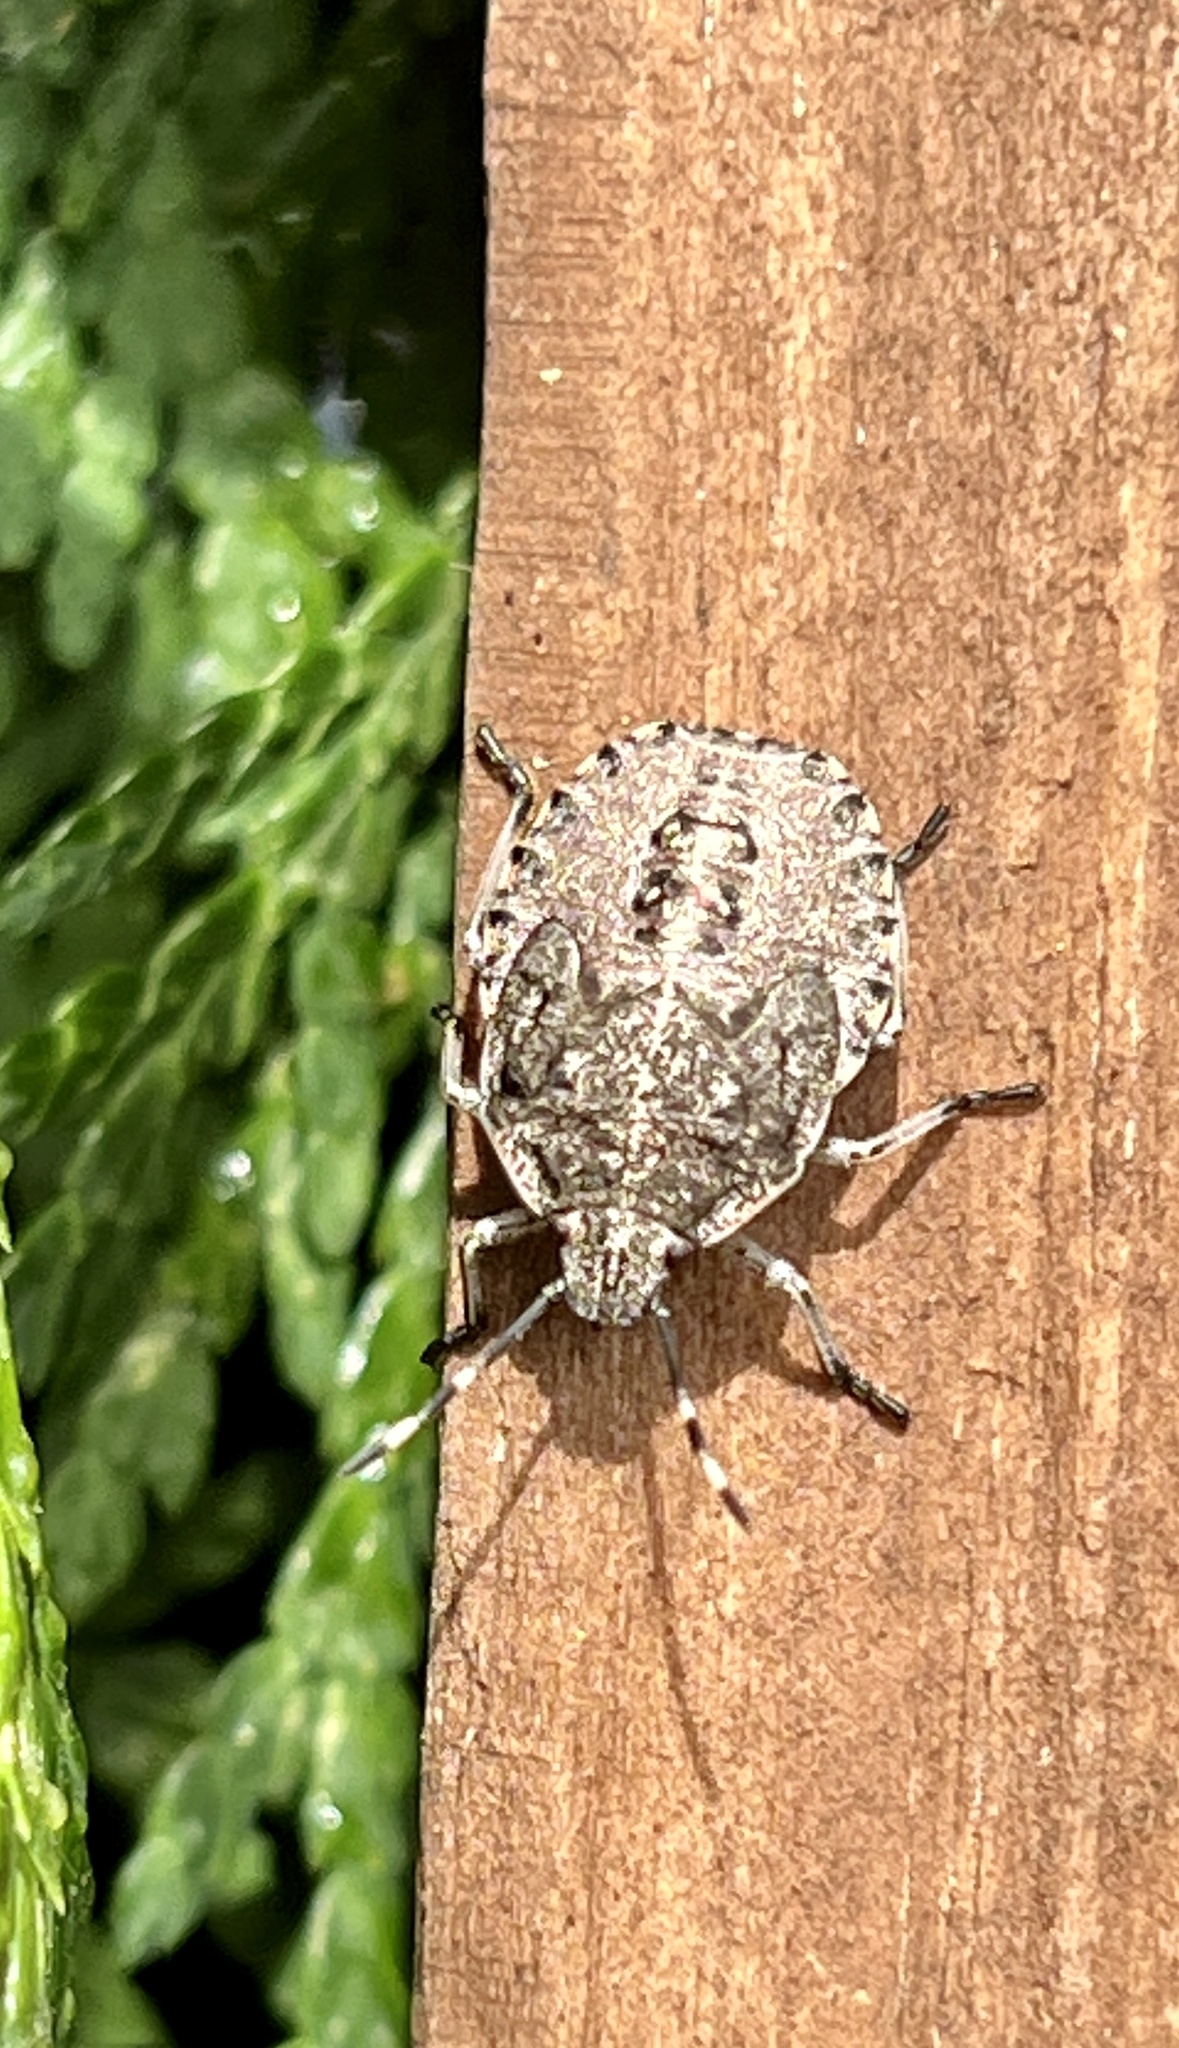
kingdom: Animalia
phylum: Arthropoda
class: Insecta
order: Hemiptera
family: Pentatomidae
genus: Rhaphigaster
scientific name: Rhaphigaster nebulosa
